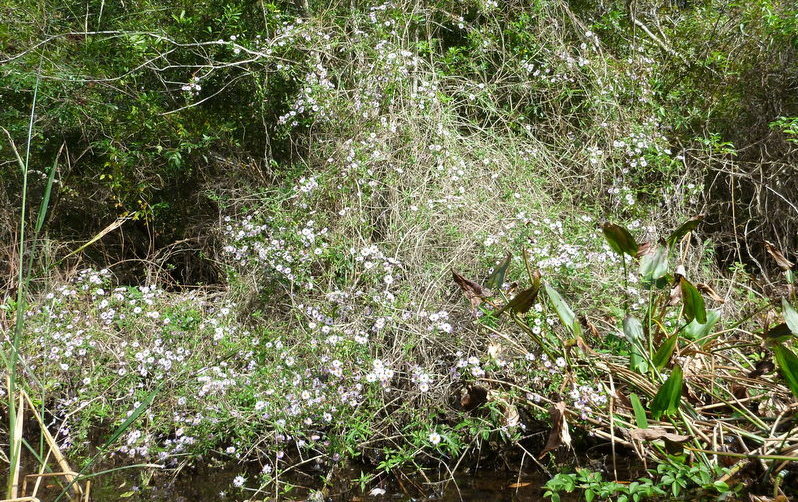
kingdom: Plantae
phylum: Tracheophyta
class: Magnoliopsida
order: Asterales
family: Asteraceae
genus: Ampelaster
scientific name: Ampelaster carolinianus
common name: Climbing aster
